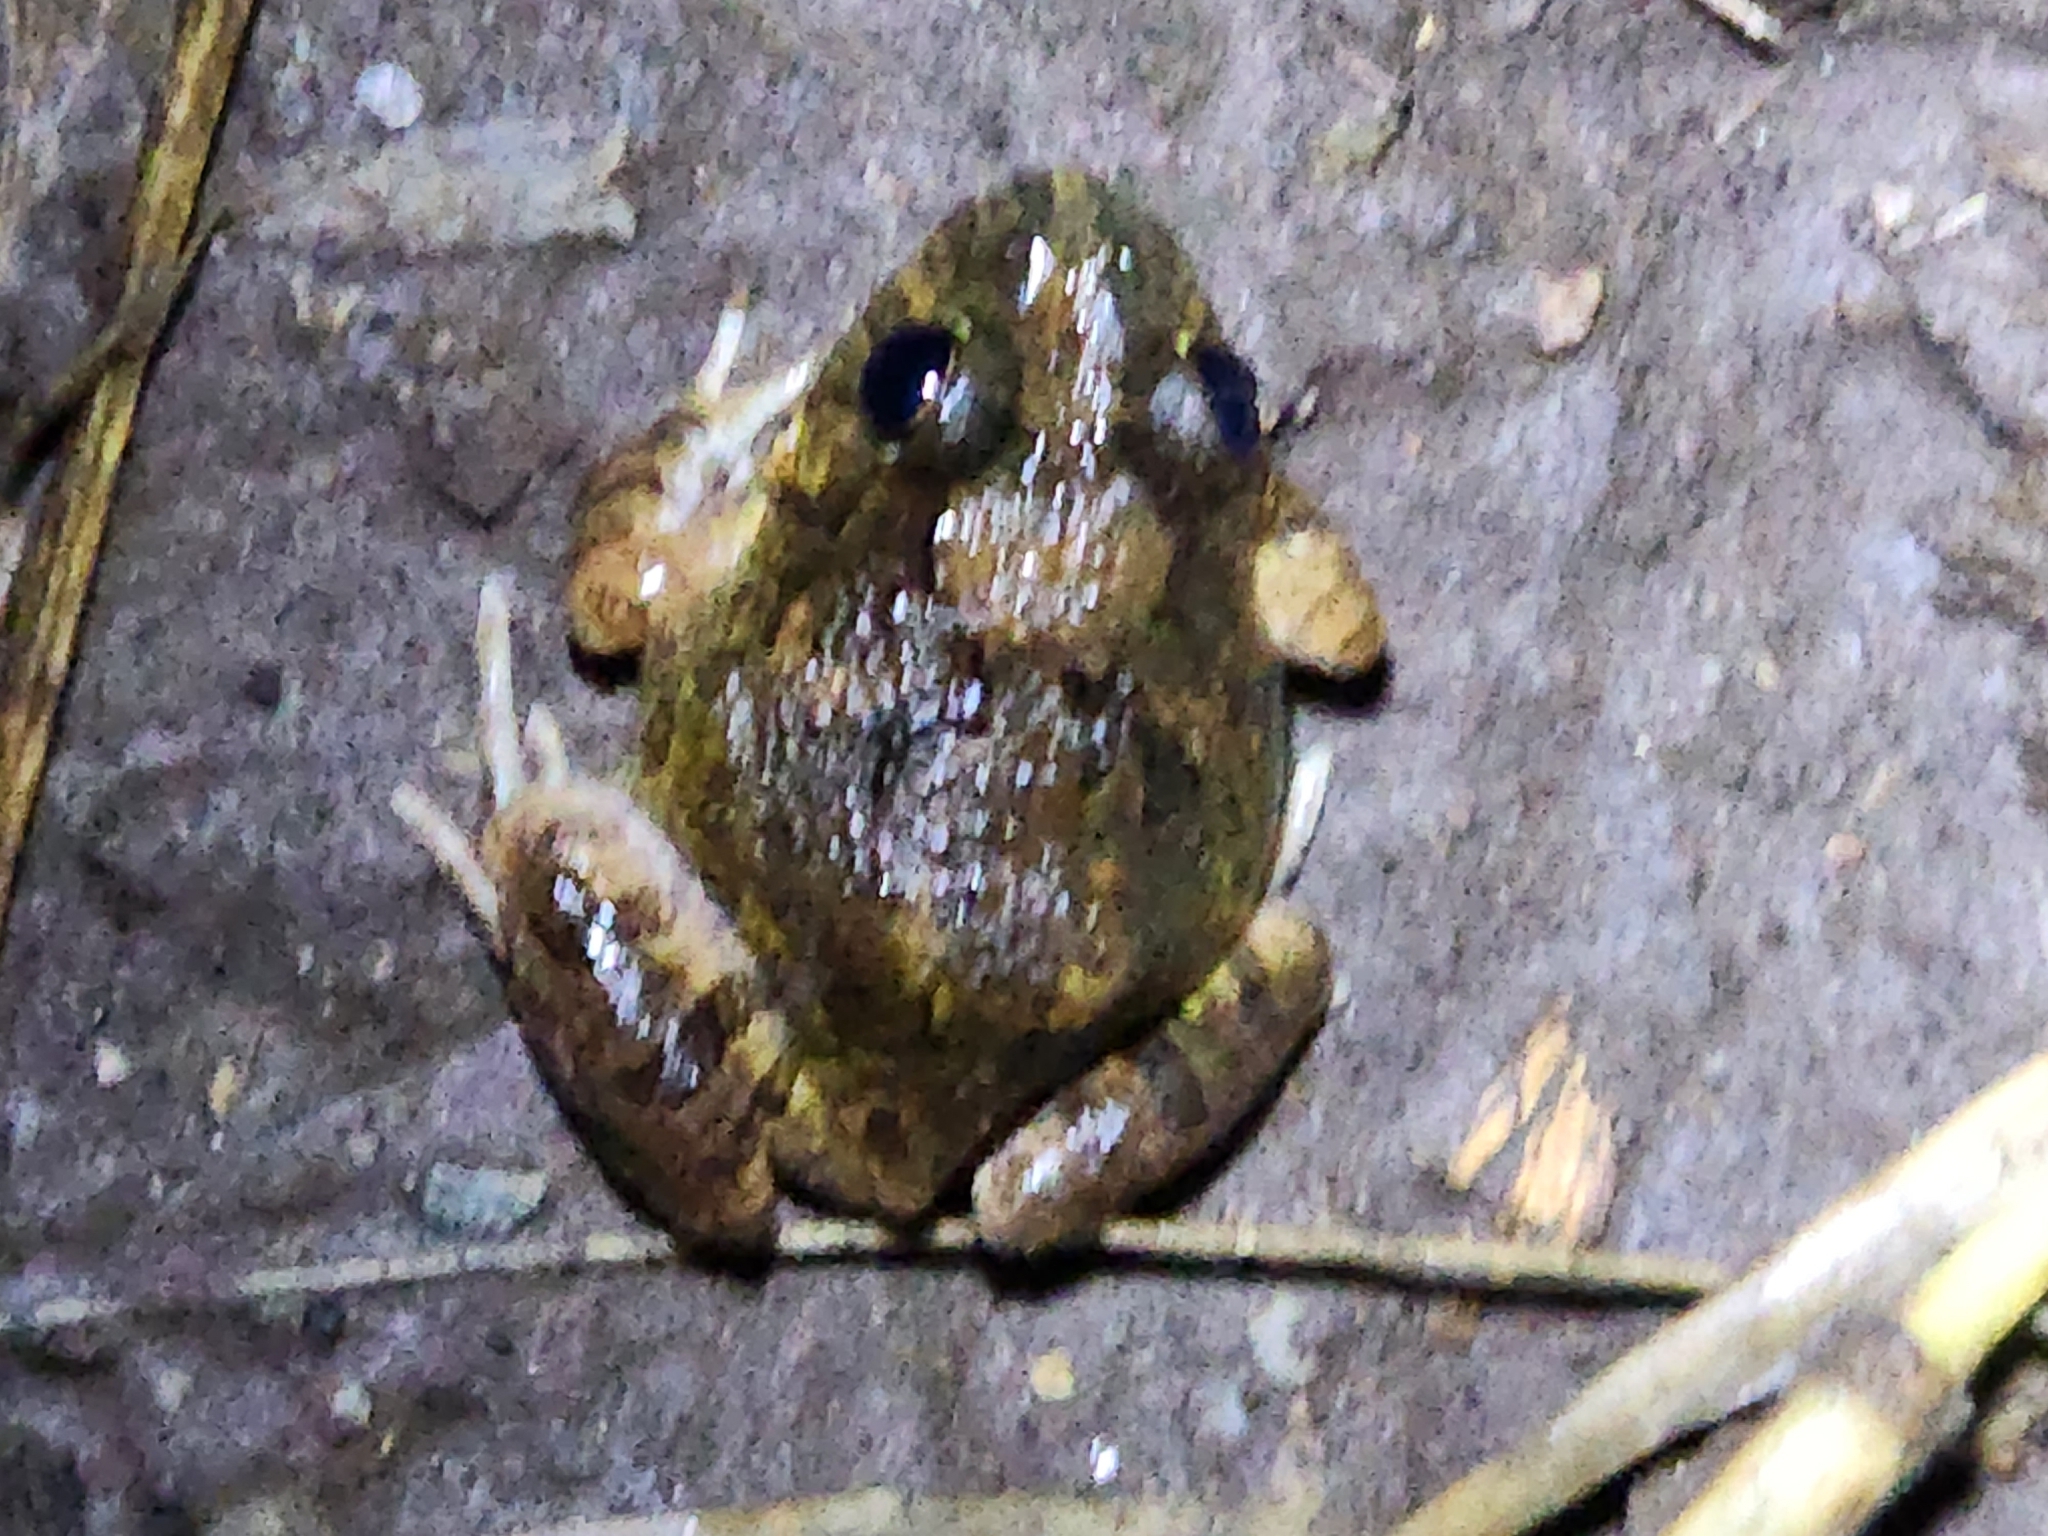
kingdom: Animalia
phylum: Chordata
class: Amphibia
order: Anura
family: Limnodynastidae
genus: Platyplectrum
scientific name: Platyplectrum ornatum
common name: Ornate burrowing frog
